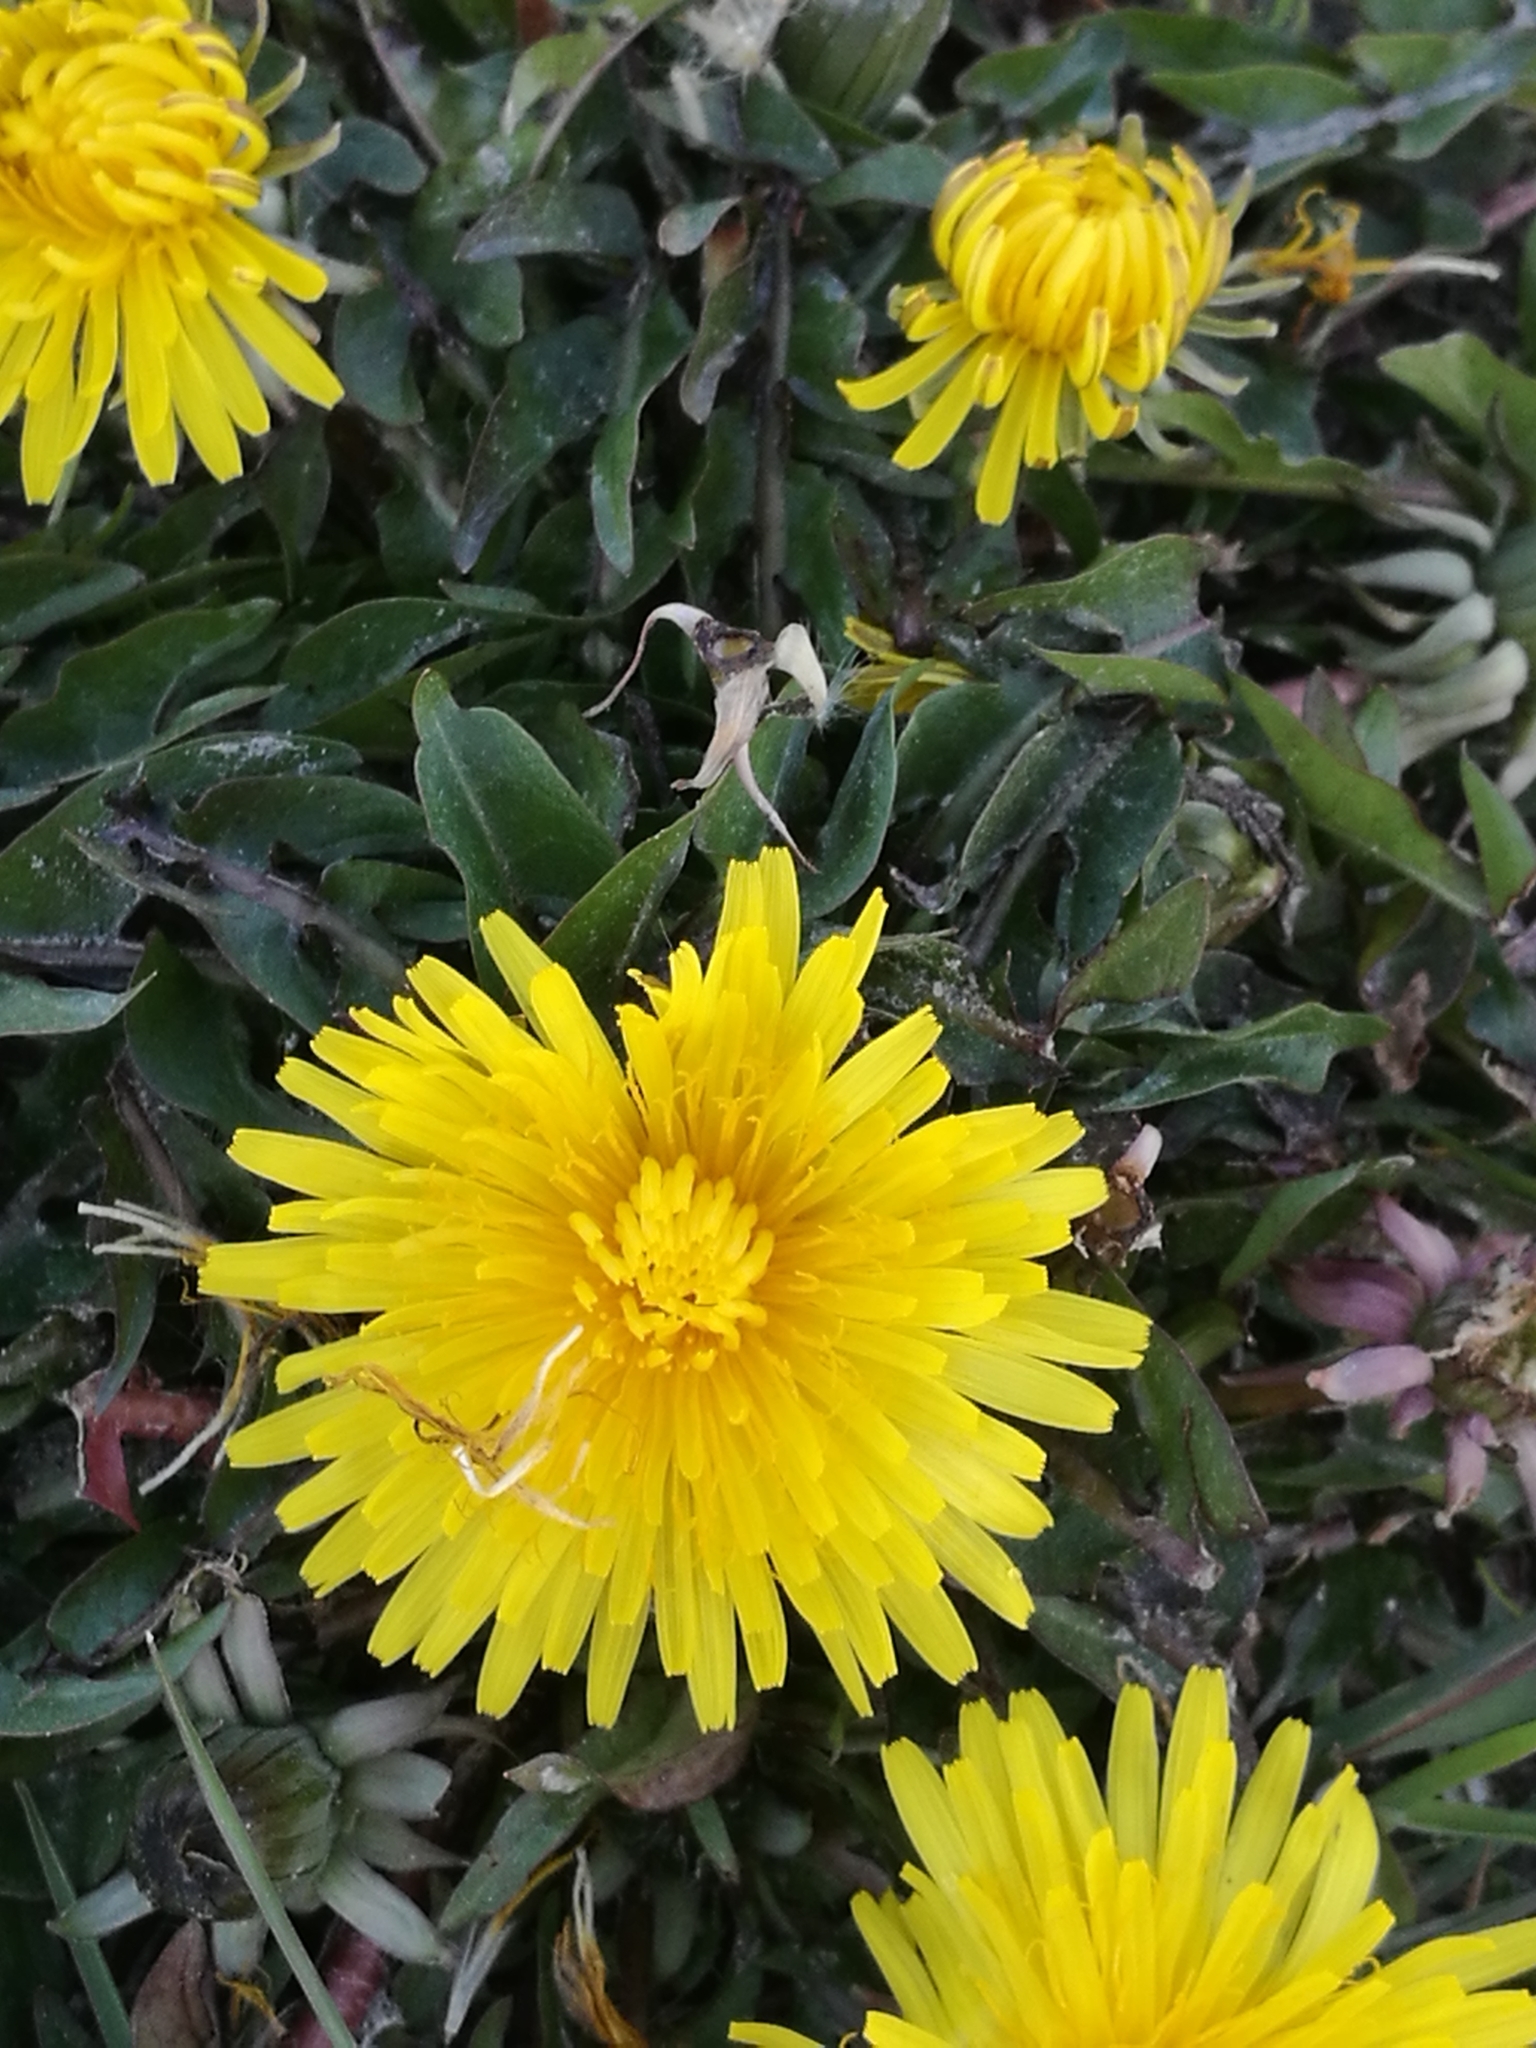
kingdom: Plantae
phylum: Tracheophyta
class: Magnoliopsida
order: Asterales
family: Asteraceae
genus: Taraxacum
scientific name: Taraxacum officinale
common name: Common dandelion
